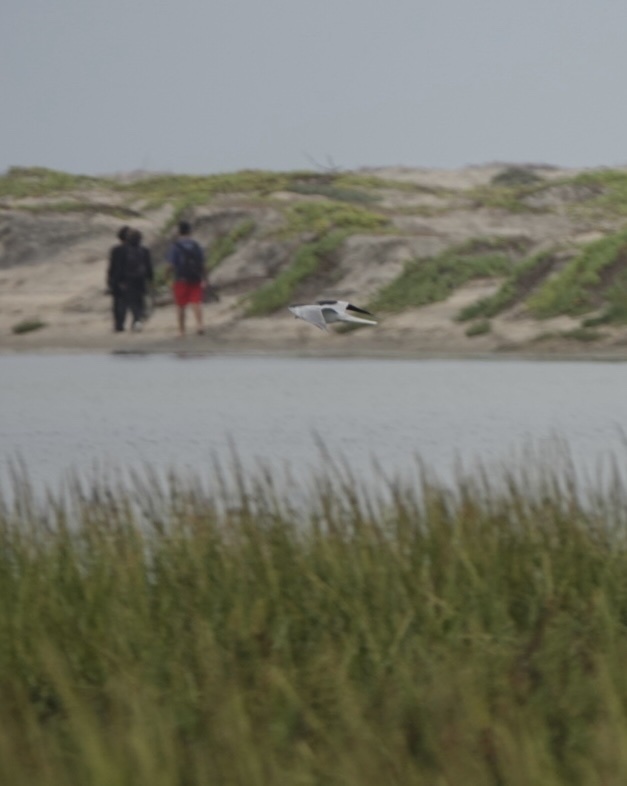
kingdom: Animalia
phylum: Chordata
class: Aves
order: Accipitriformes
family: Accipitridae
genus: Elanus
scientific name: Elanus leucurus
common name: White-tailed kite
